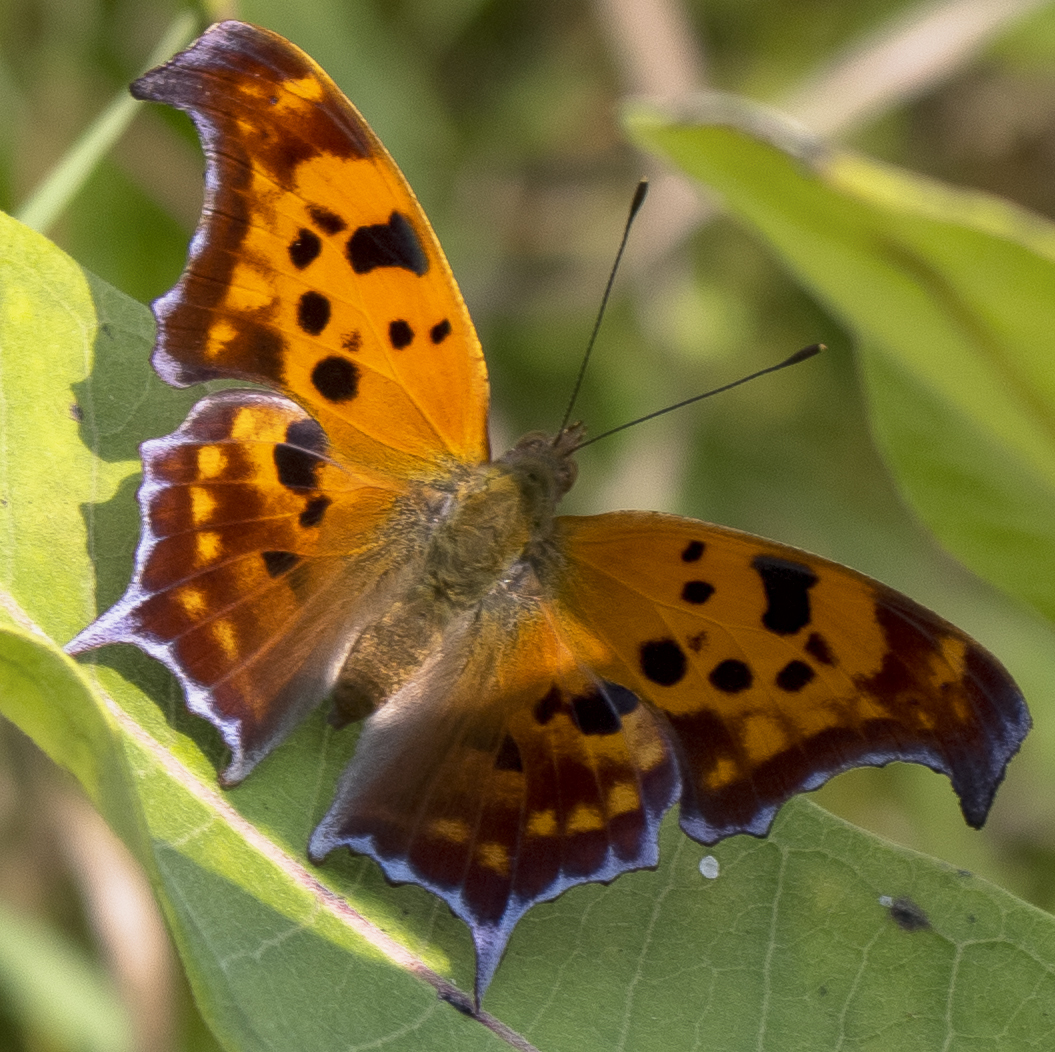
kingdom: Animalia
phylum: Arthropoda
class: Insecta
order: Lepidoptera
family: Nymphalidae
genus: Polygonia
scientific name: Polygonia interrogationis
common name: Question mark
